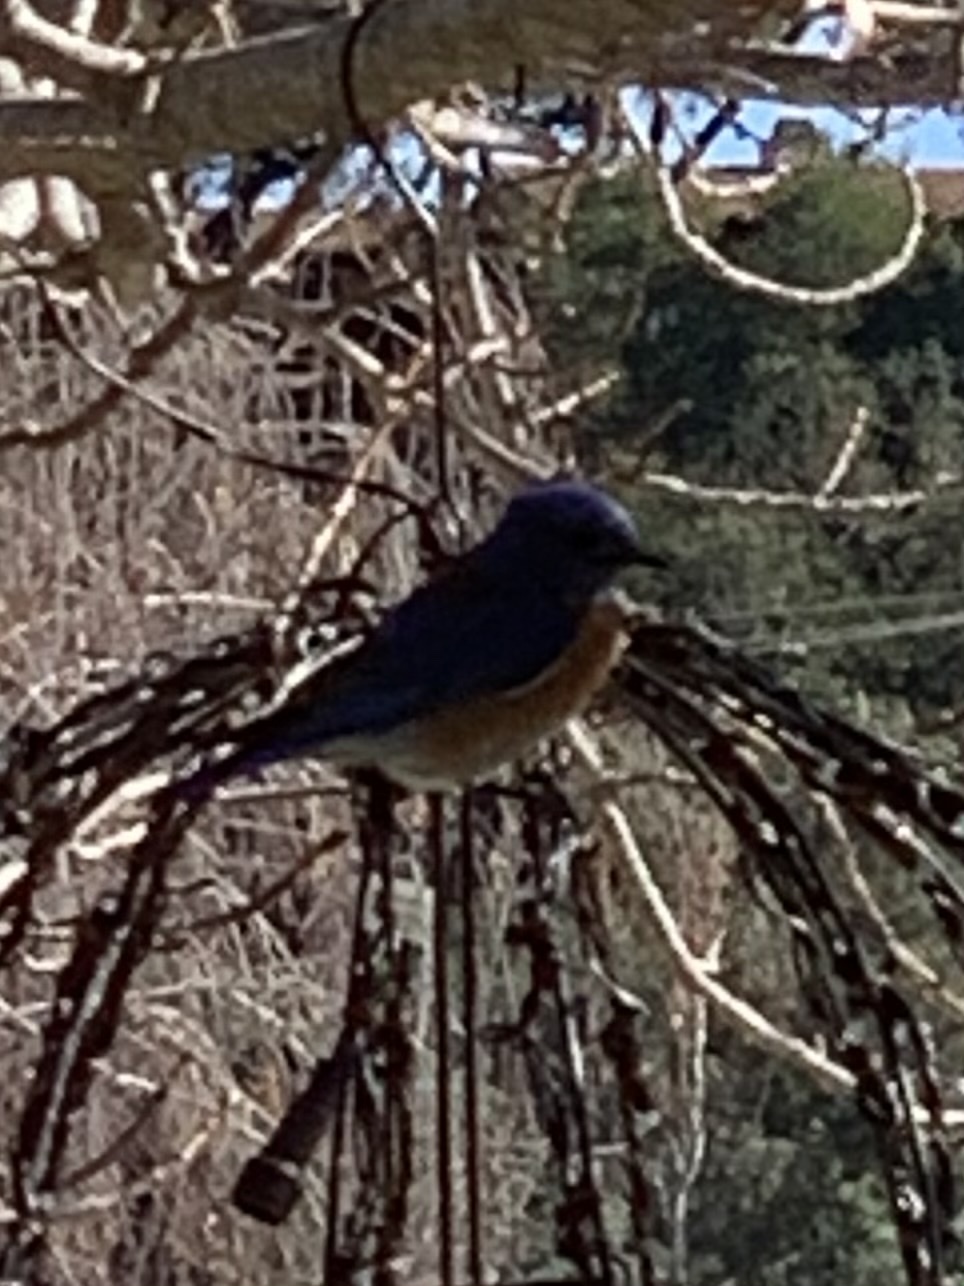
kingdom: Animalia
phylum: Chordata
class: Aves
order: Passeriformes
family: Turdidae
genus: Sialia
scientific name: Sialia mexicana
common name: Western bluebird
